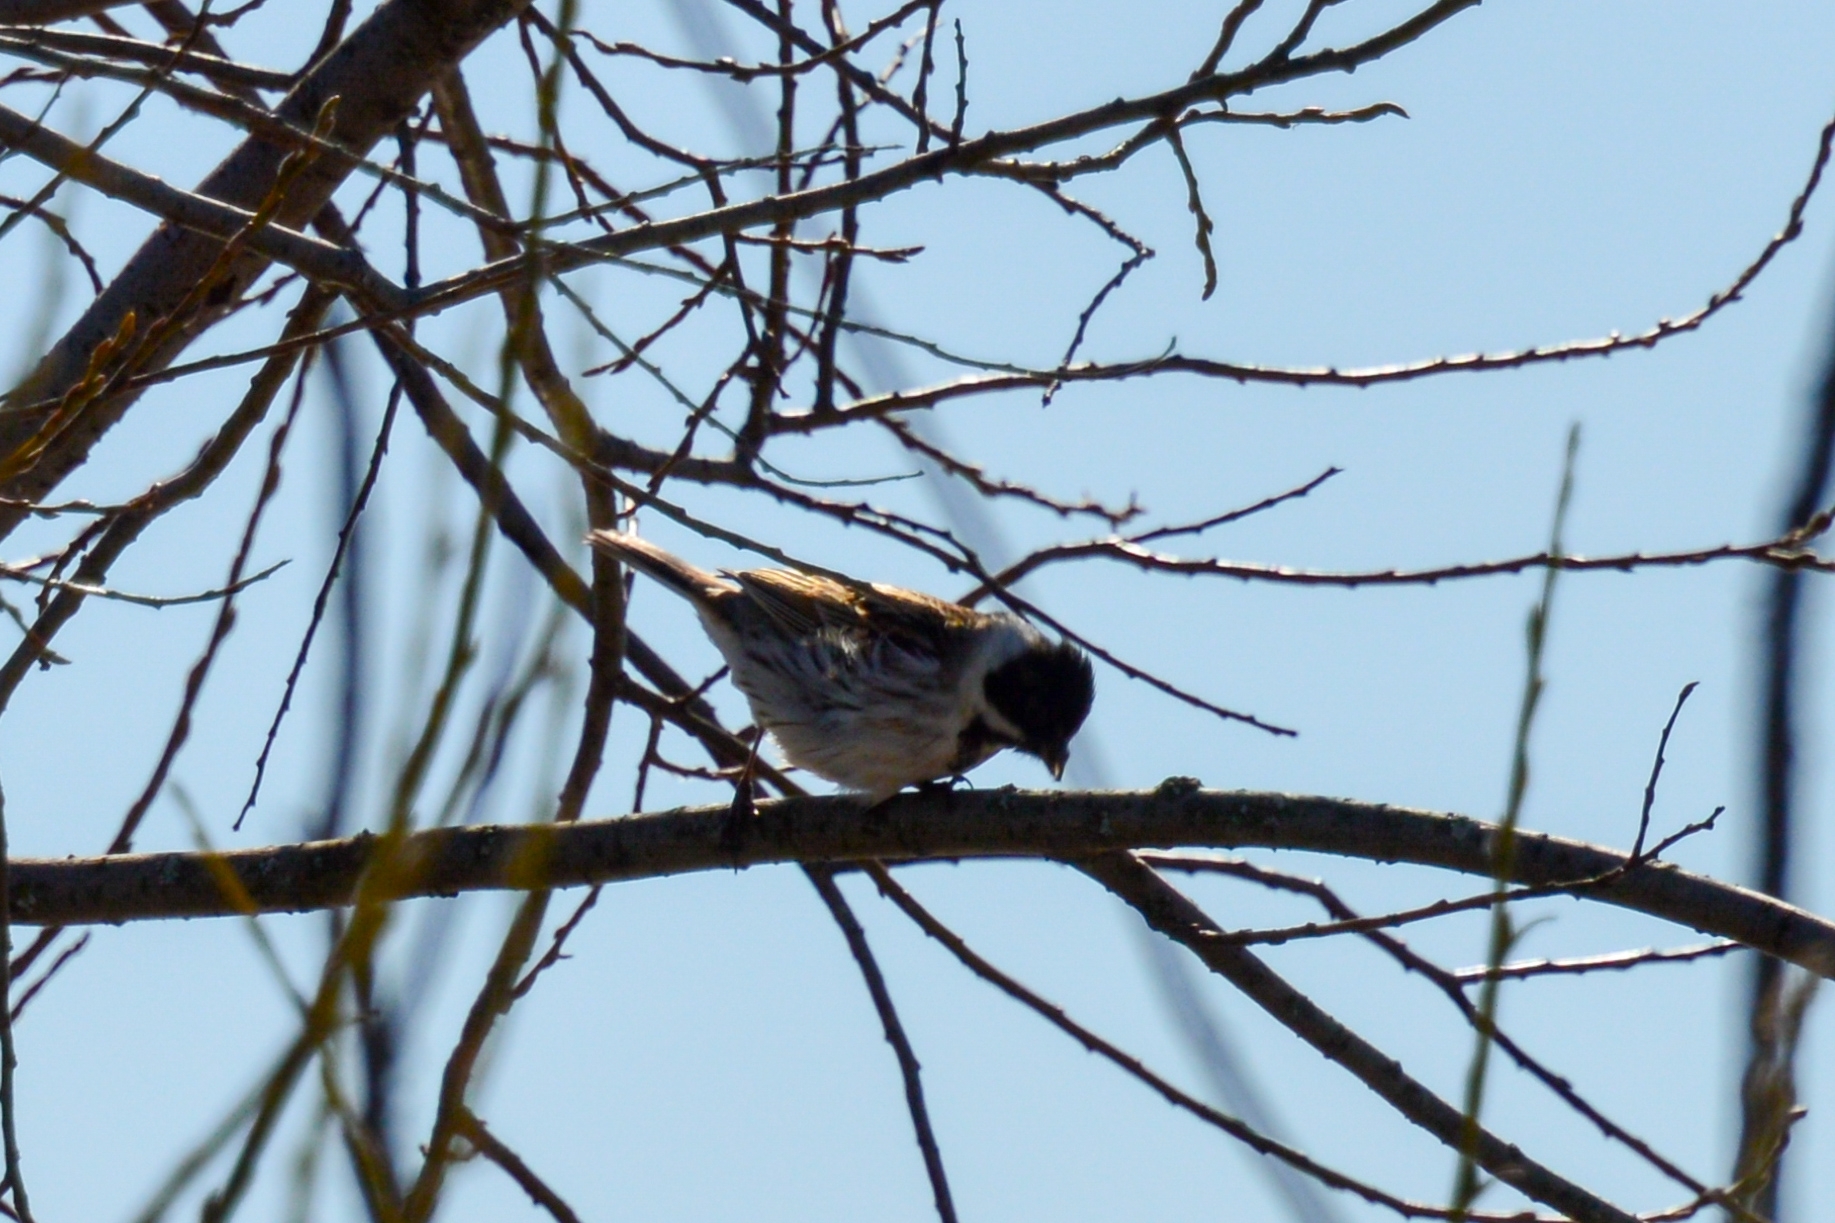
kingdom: Animalia
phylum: Chordata
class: Aves
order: Passeriformes
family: Emberizidae
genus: Emberiza
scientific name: Emberiza schoeniclus
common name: Reed bunting
